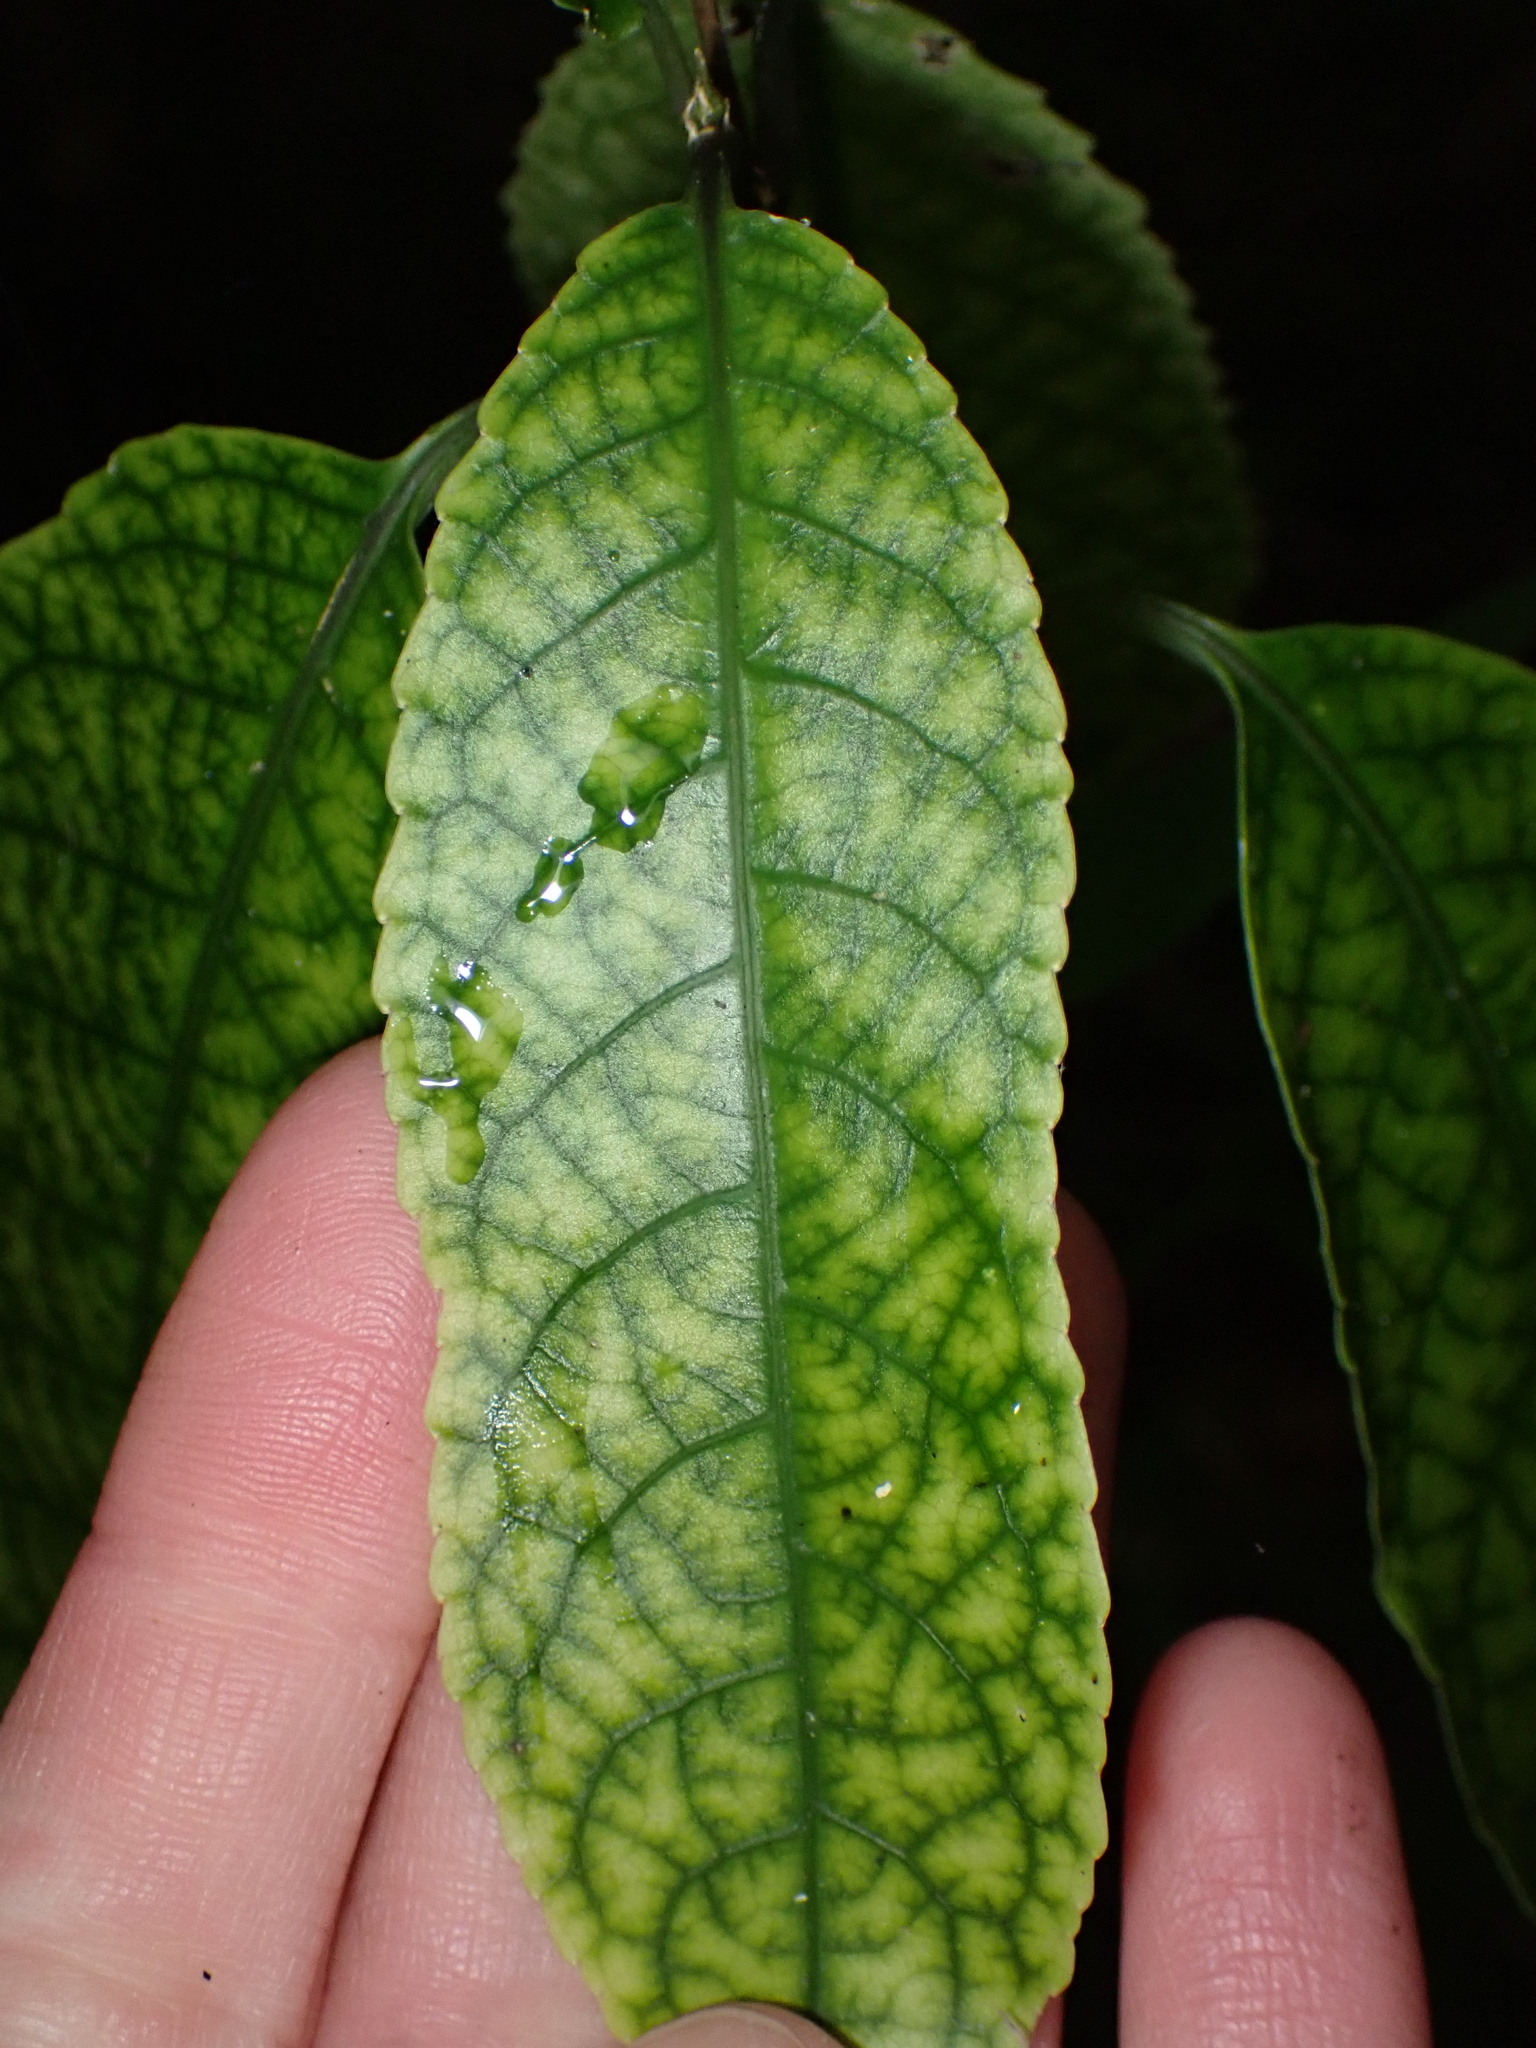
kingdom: Plantae
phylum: Tracheophyta
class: Magnoliopsida
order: Malpighiales
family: Violaceae
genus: Melicytus
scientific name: Melicytus ramiflorus
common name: Mahoe
